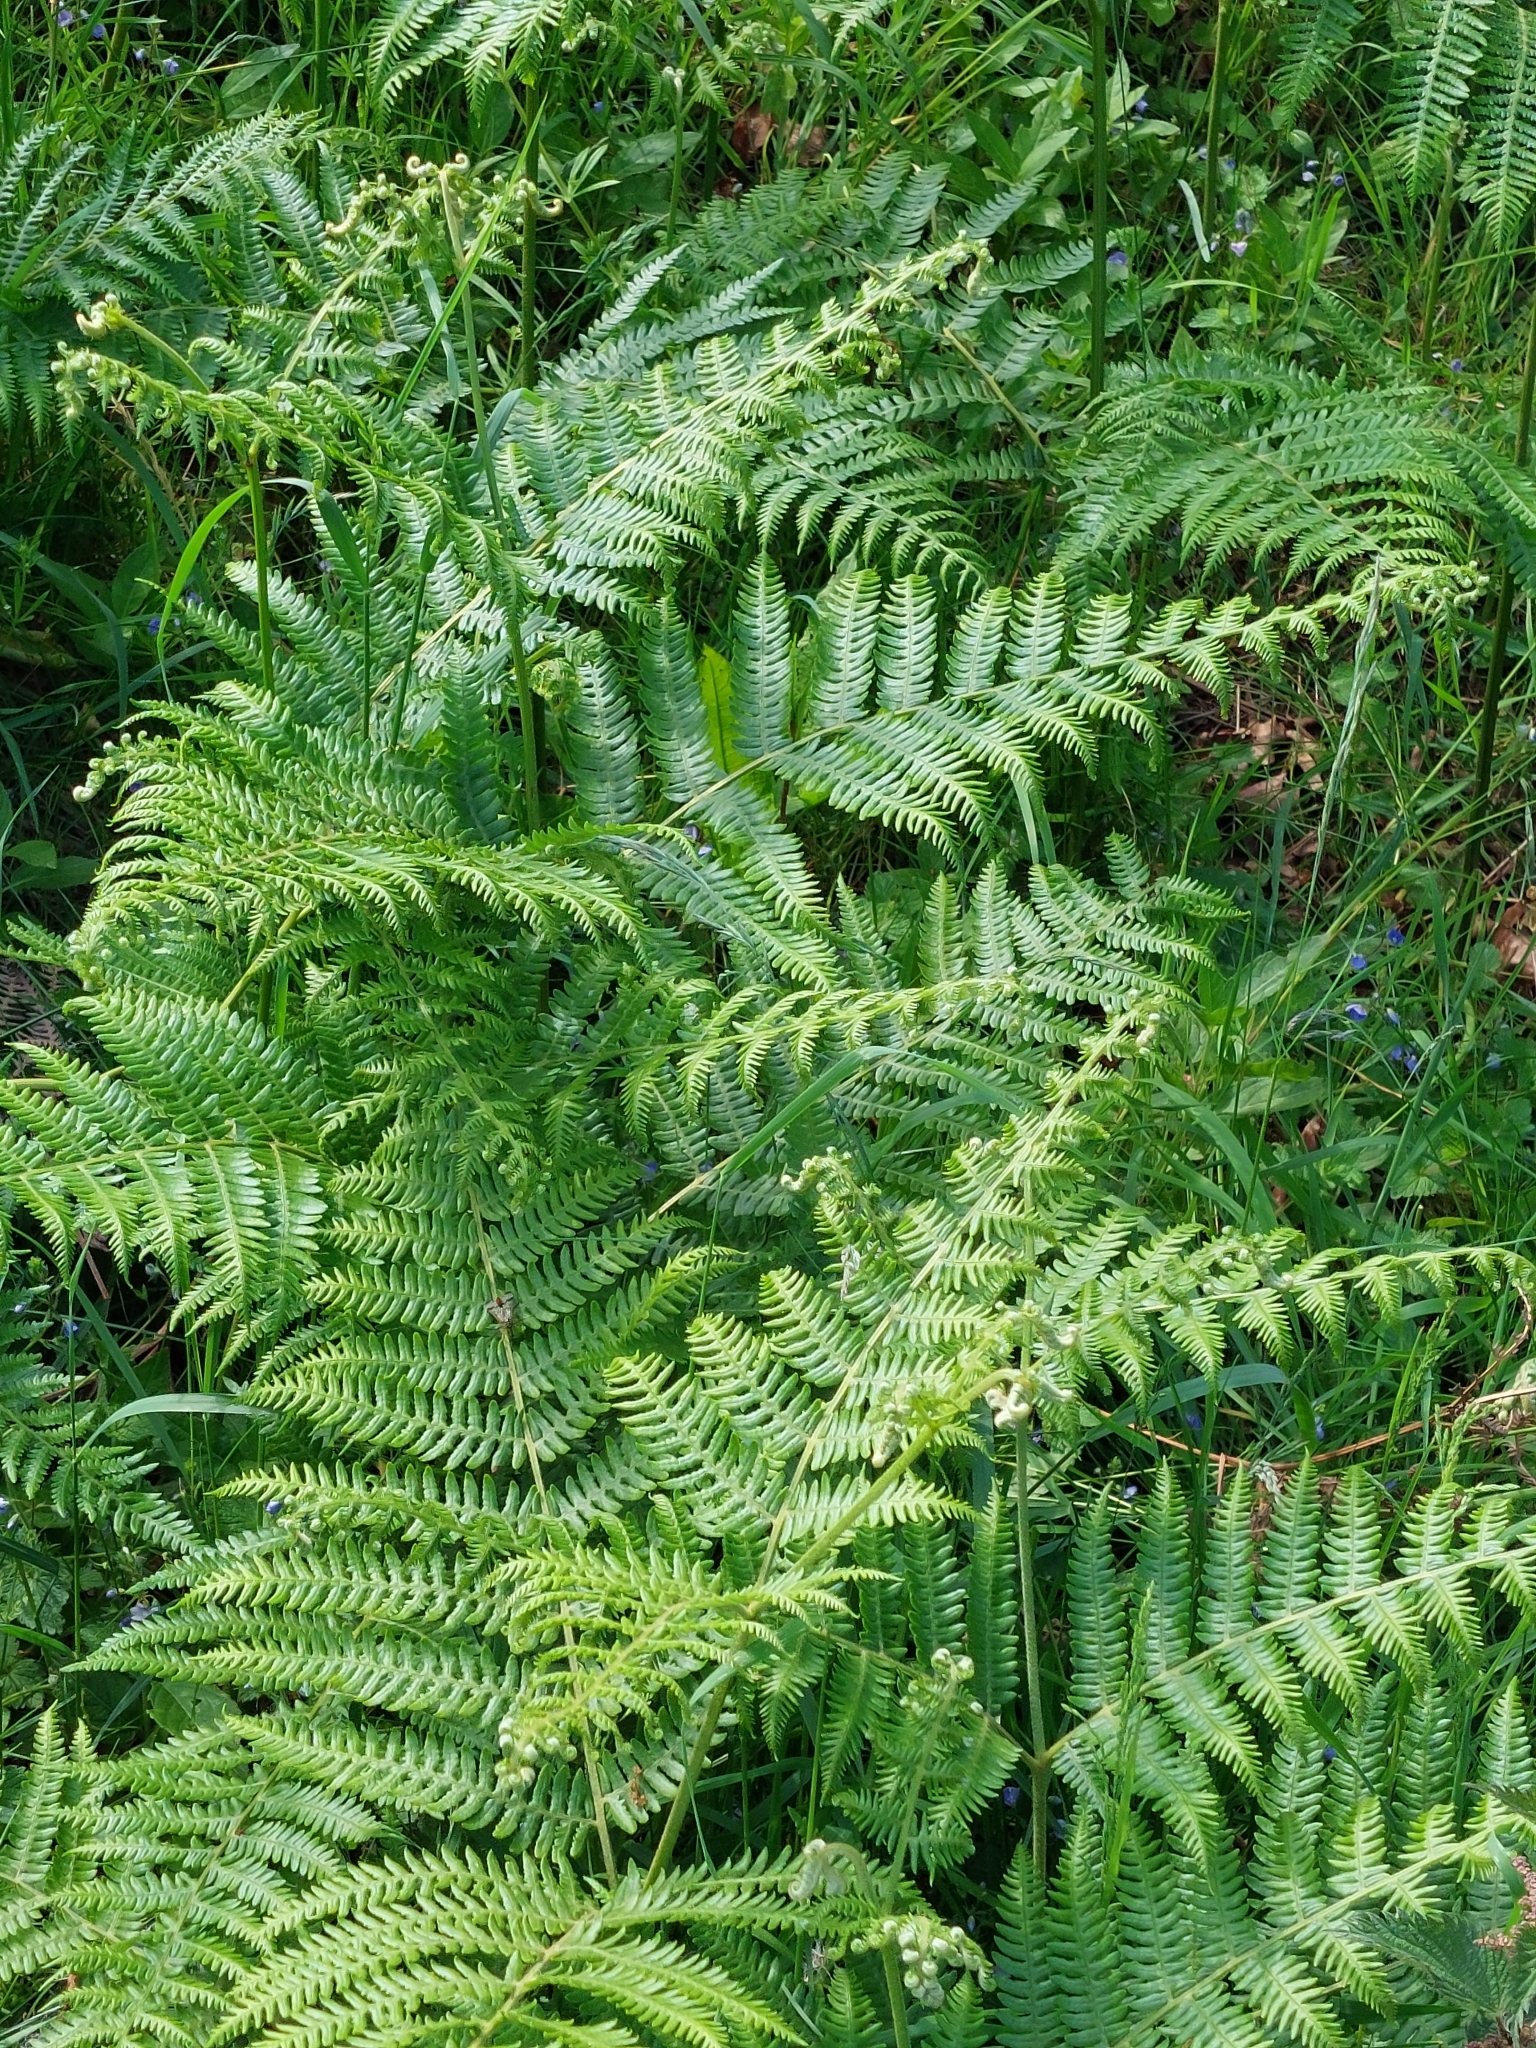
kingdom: Plantae
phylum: Tracheophyta
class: Polypodiopsida
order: Polypodiales
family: Dennstaedtiaceae
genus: Pteridium
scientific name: Pteridium aquilinum
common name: Bracken
